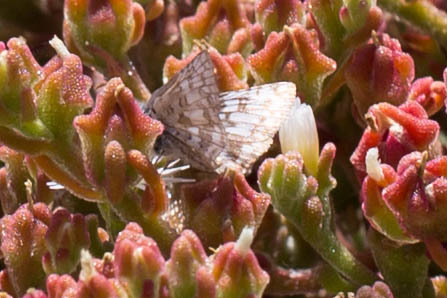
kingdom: Animalia
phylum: Arthropoda
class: Insecta
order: Lepidoptera
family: Hesperiidae
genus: Burnsius
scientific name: Burnsius communis
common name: Common checkered-skipper
